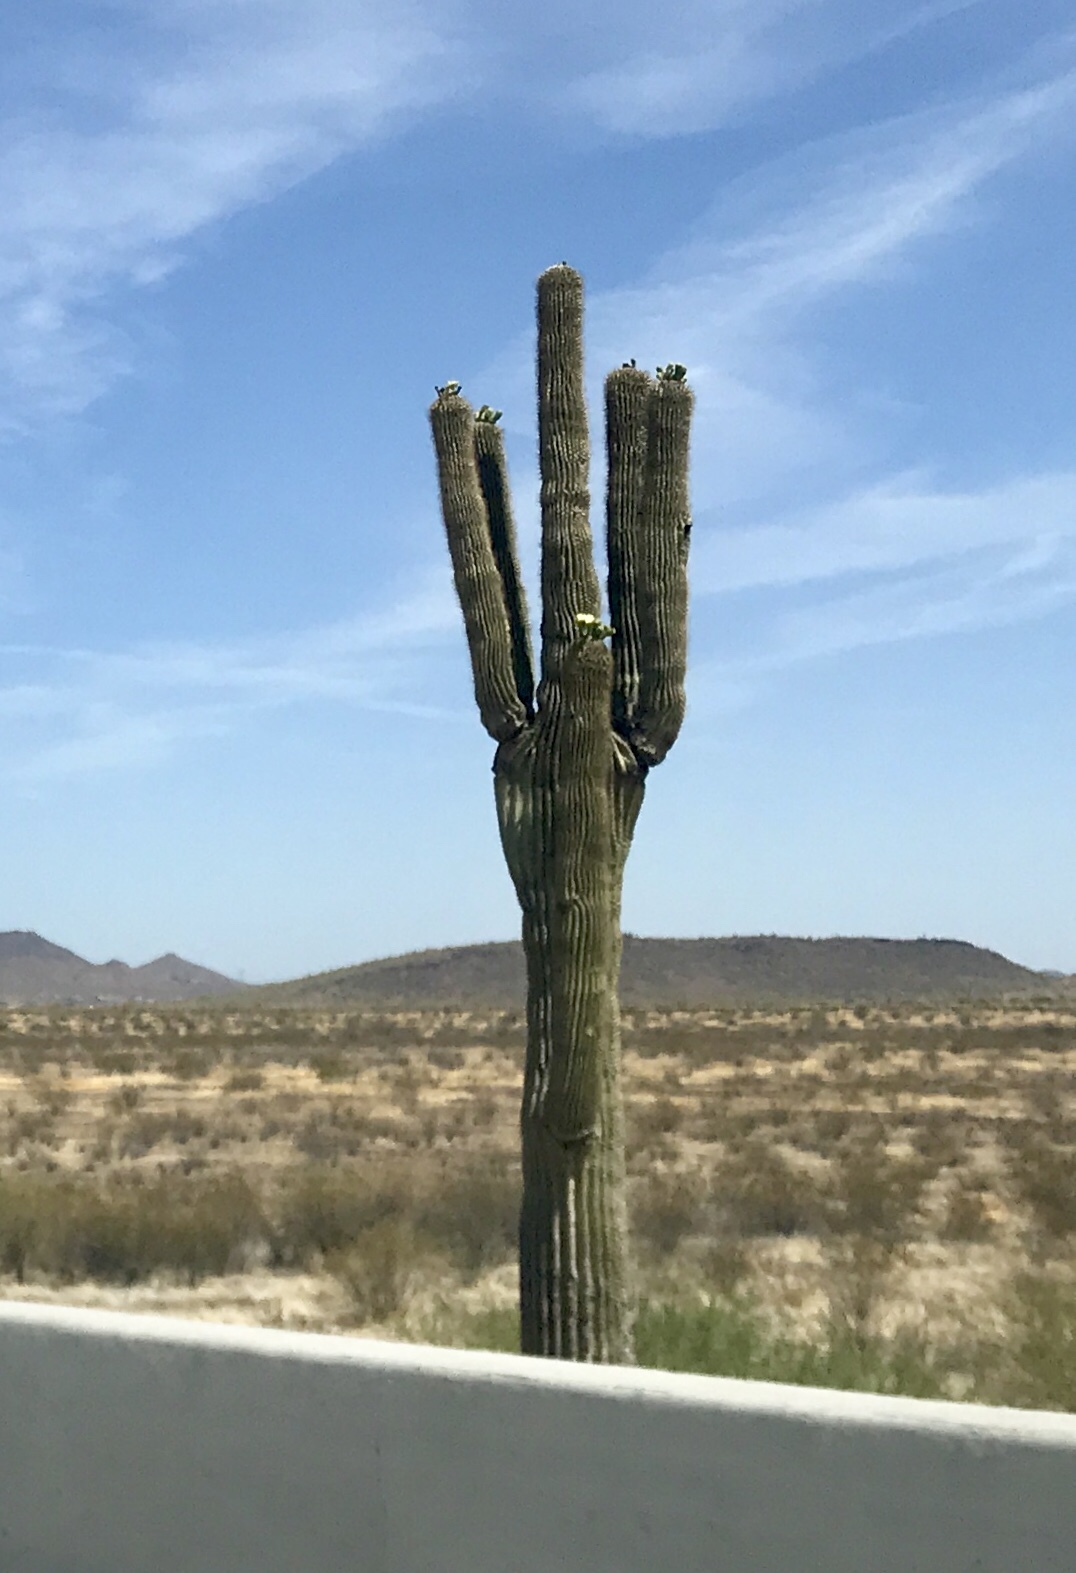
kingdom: Plantae
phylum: Tracheophyta
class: Magnoliopsida
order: Caryophyllales
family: Cactaceae
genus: Carnegiea
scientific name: Carnegiea gigantea
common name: Saguaro
